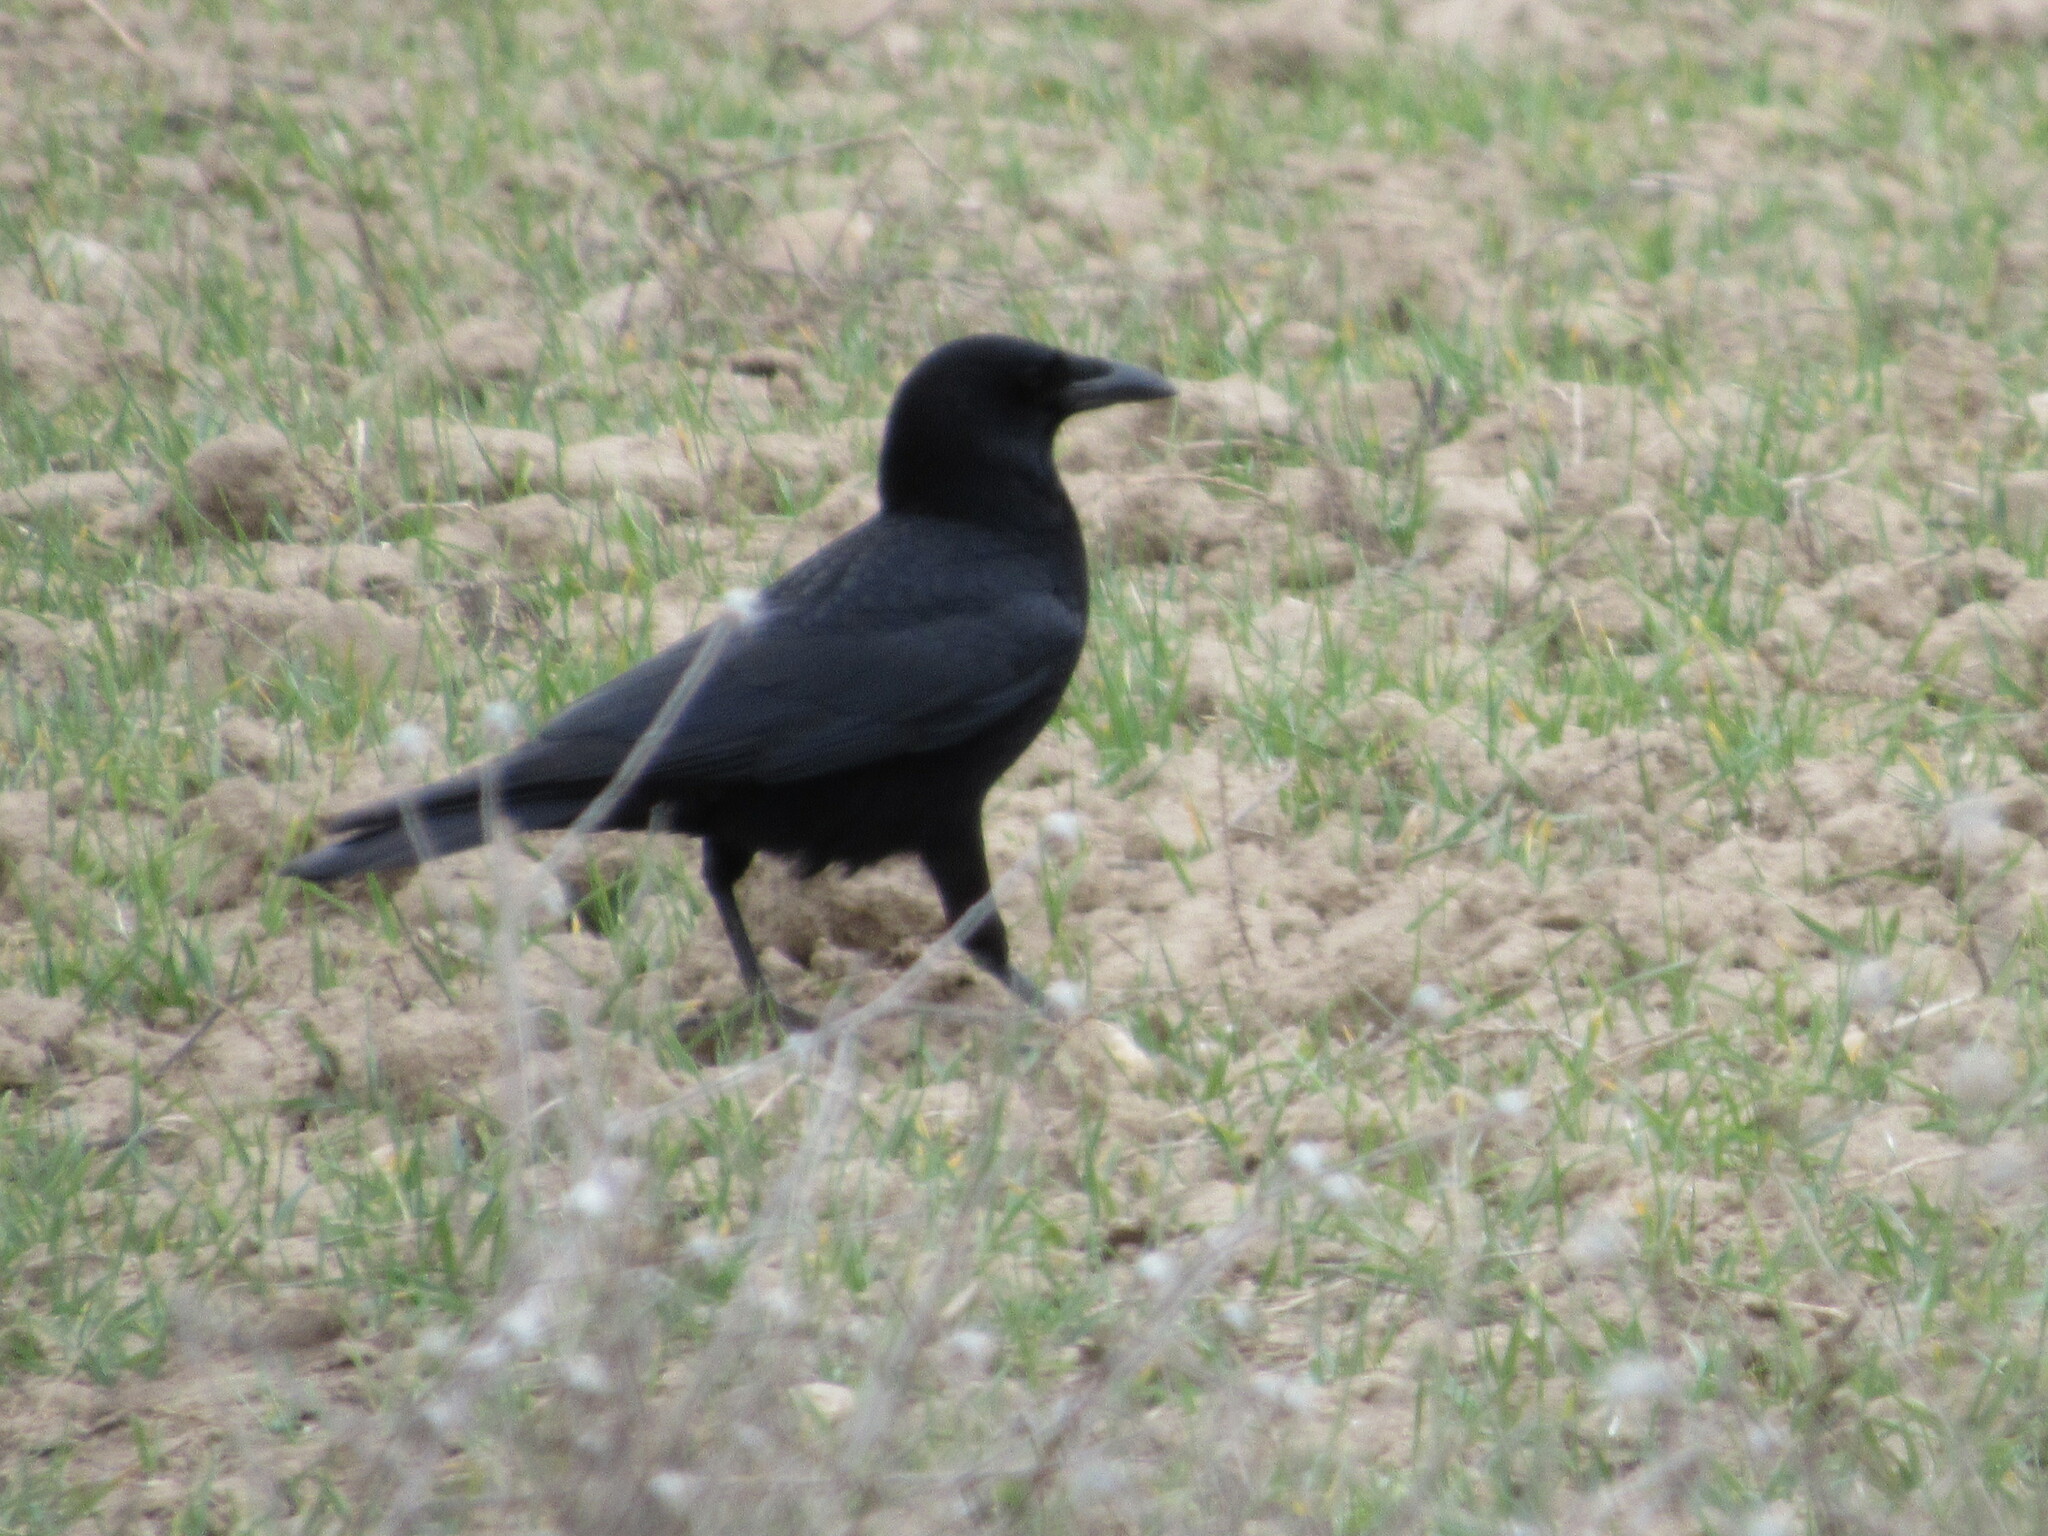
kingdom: Animalia
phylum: Chordata
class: Aves
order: Passeriformes
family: Corvidae
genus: Corvus
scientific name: Corvus corone
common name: Carrion crow
